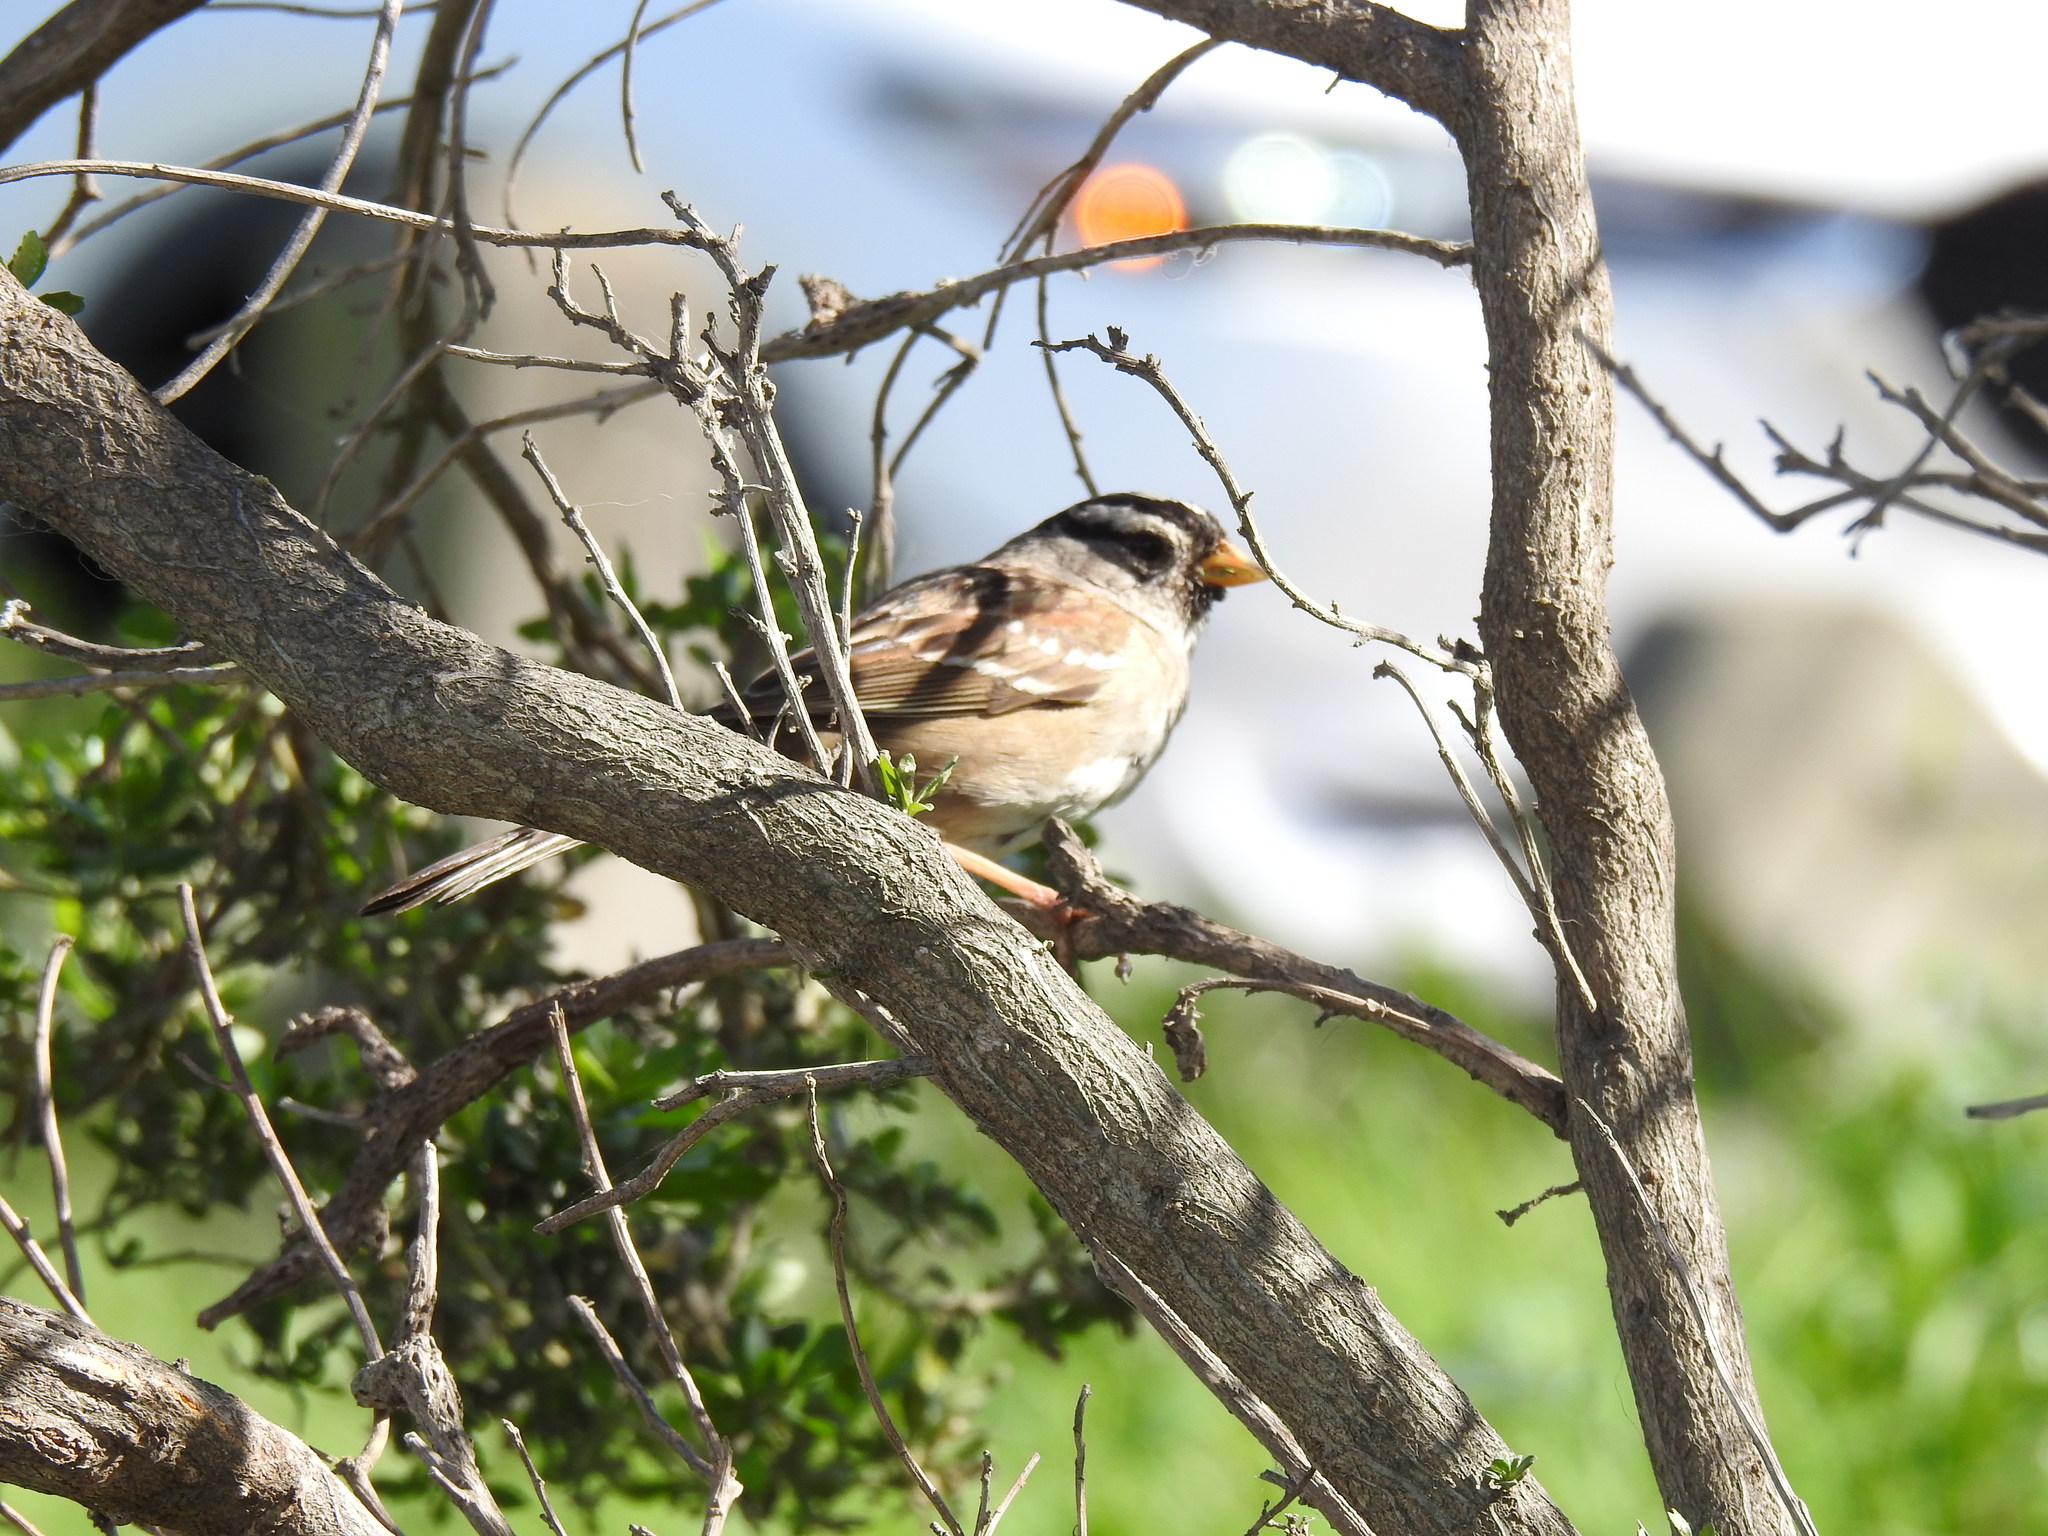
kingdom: Animalia
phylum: Chordata
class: Aves
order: Passeriformes
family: Passerellidae
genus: Zonotrichia
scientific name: Zonotrichia leucophrys
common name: White-crowned sparrow
